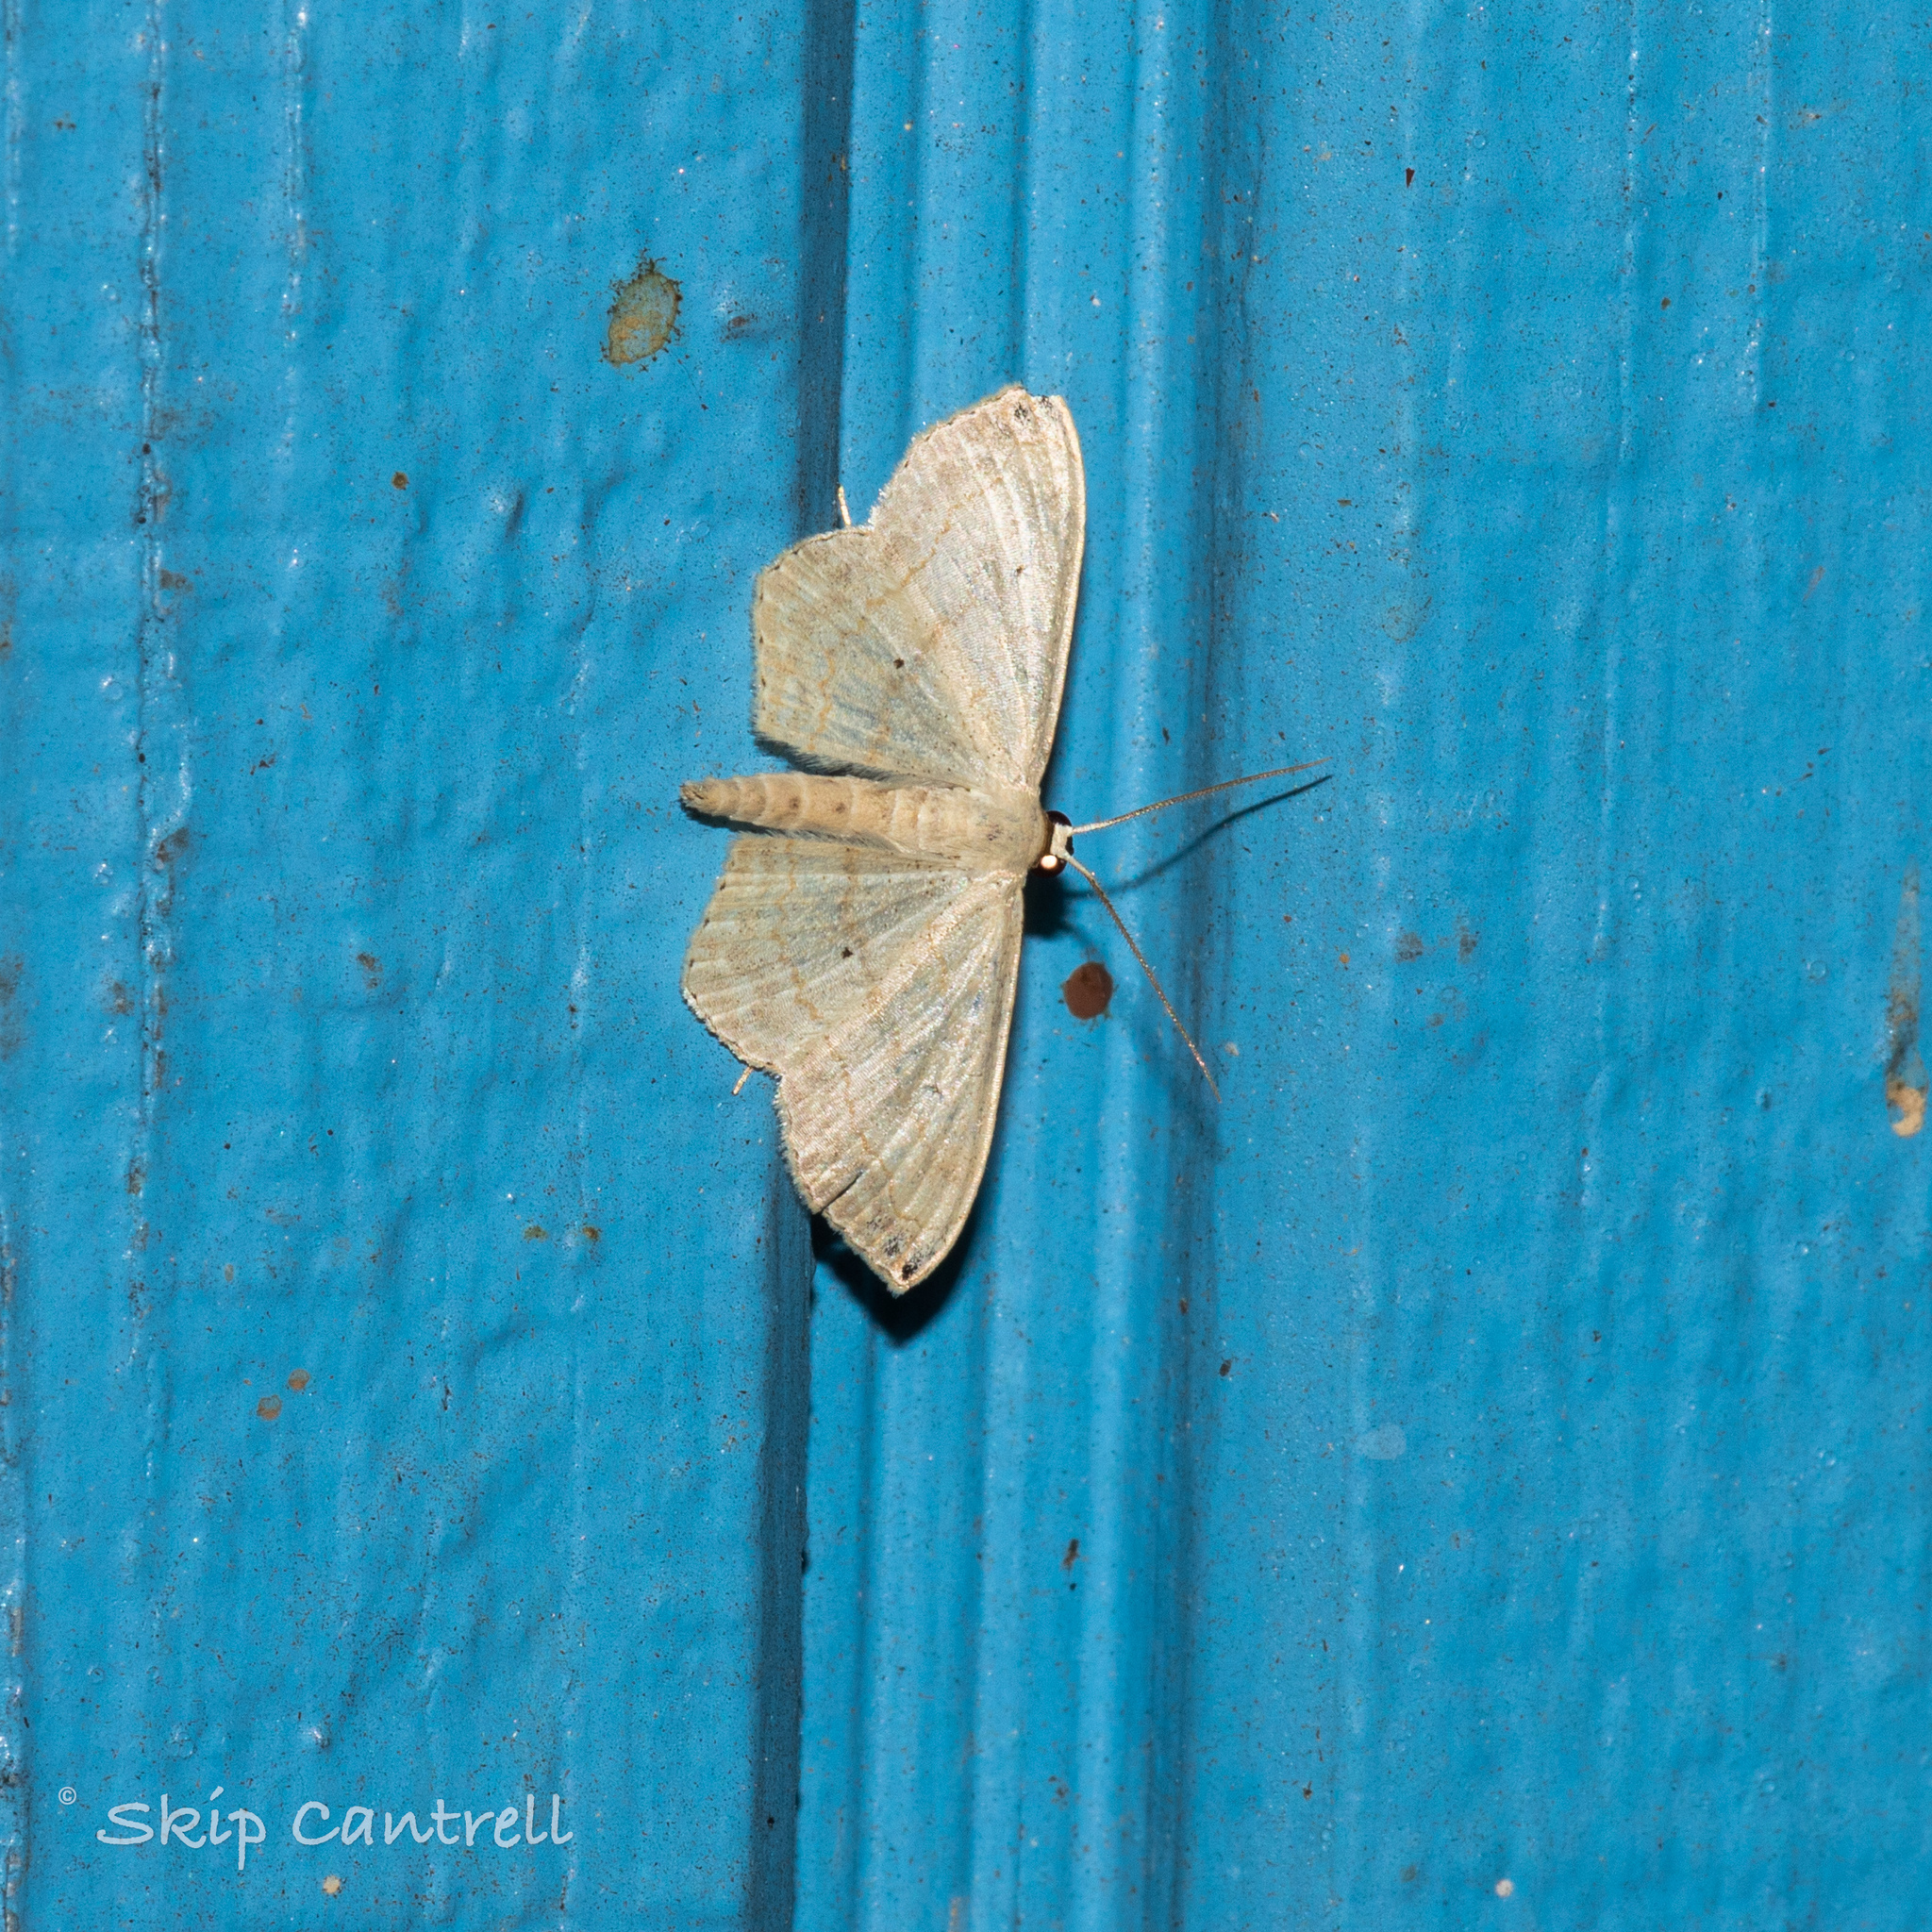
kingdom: Animalia
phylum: Arthropoda
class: Insecta
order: Lepidoptera
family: Geometridae
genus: Scopula
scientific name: Scopula umbilicata
